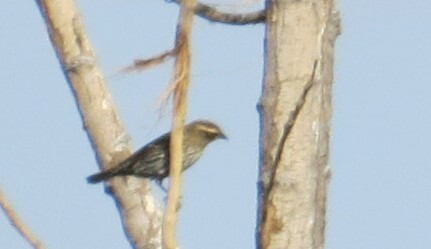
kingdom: Animalia
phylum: Chordata
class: Aves
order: Passeriformes
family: Icteridae
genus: Agelaius
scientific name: Agelaius phoeniceus
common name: Red-winged blackbird
